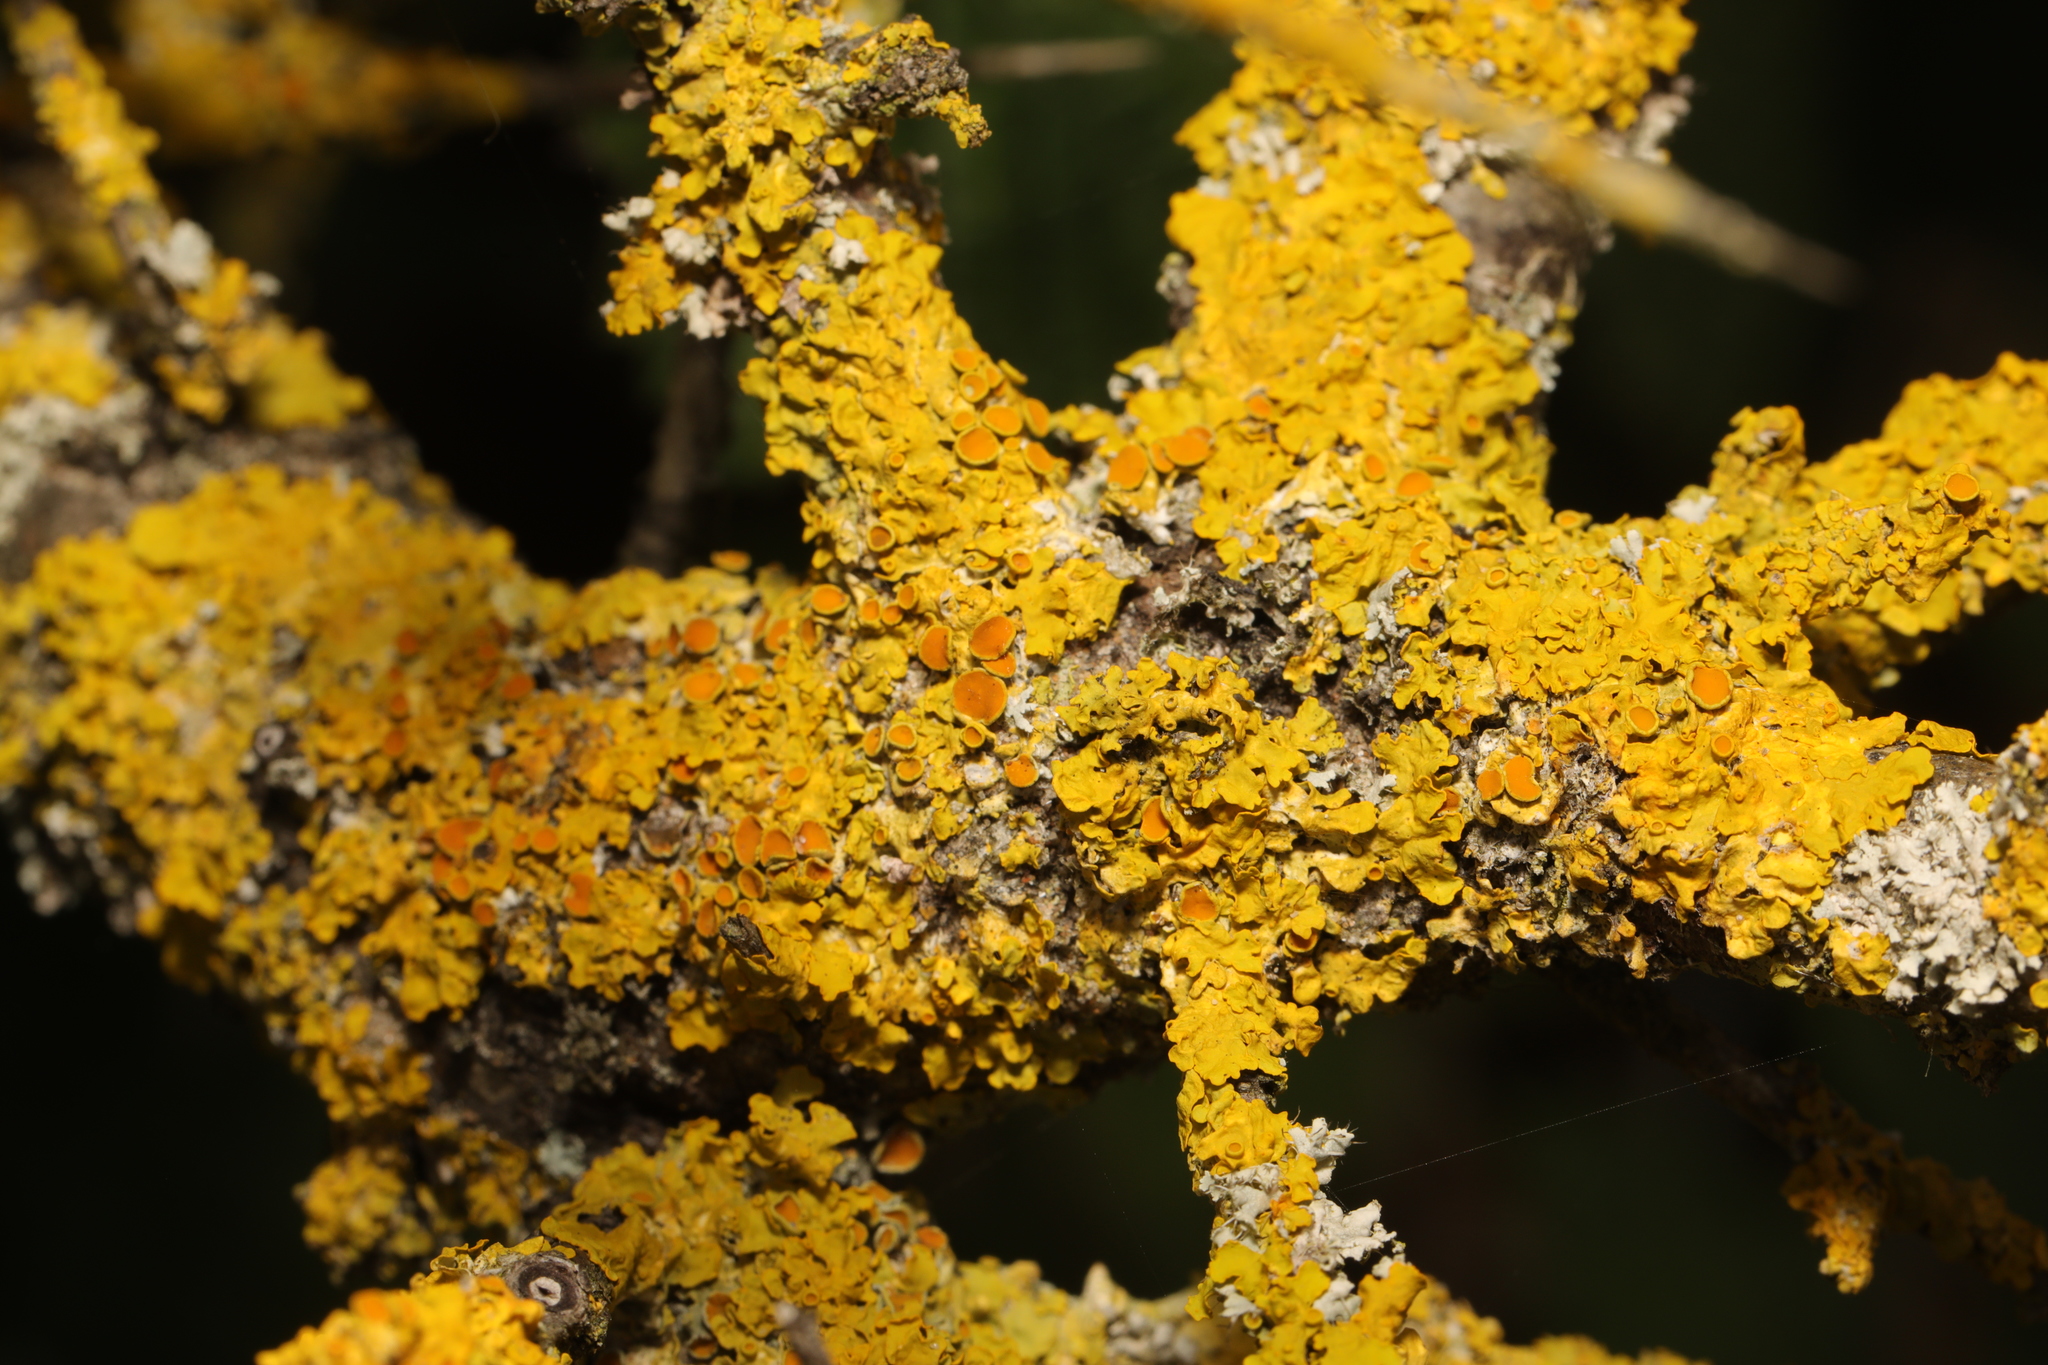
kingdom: Fungi
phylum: Ascomycota
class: Lecanoromycetes
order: Teloschistales
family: Teloschistaceae
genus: Xanthoria
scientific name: Xanthoria parietina
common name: Common orange lichen
